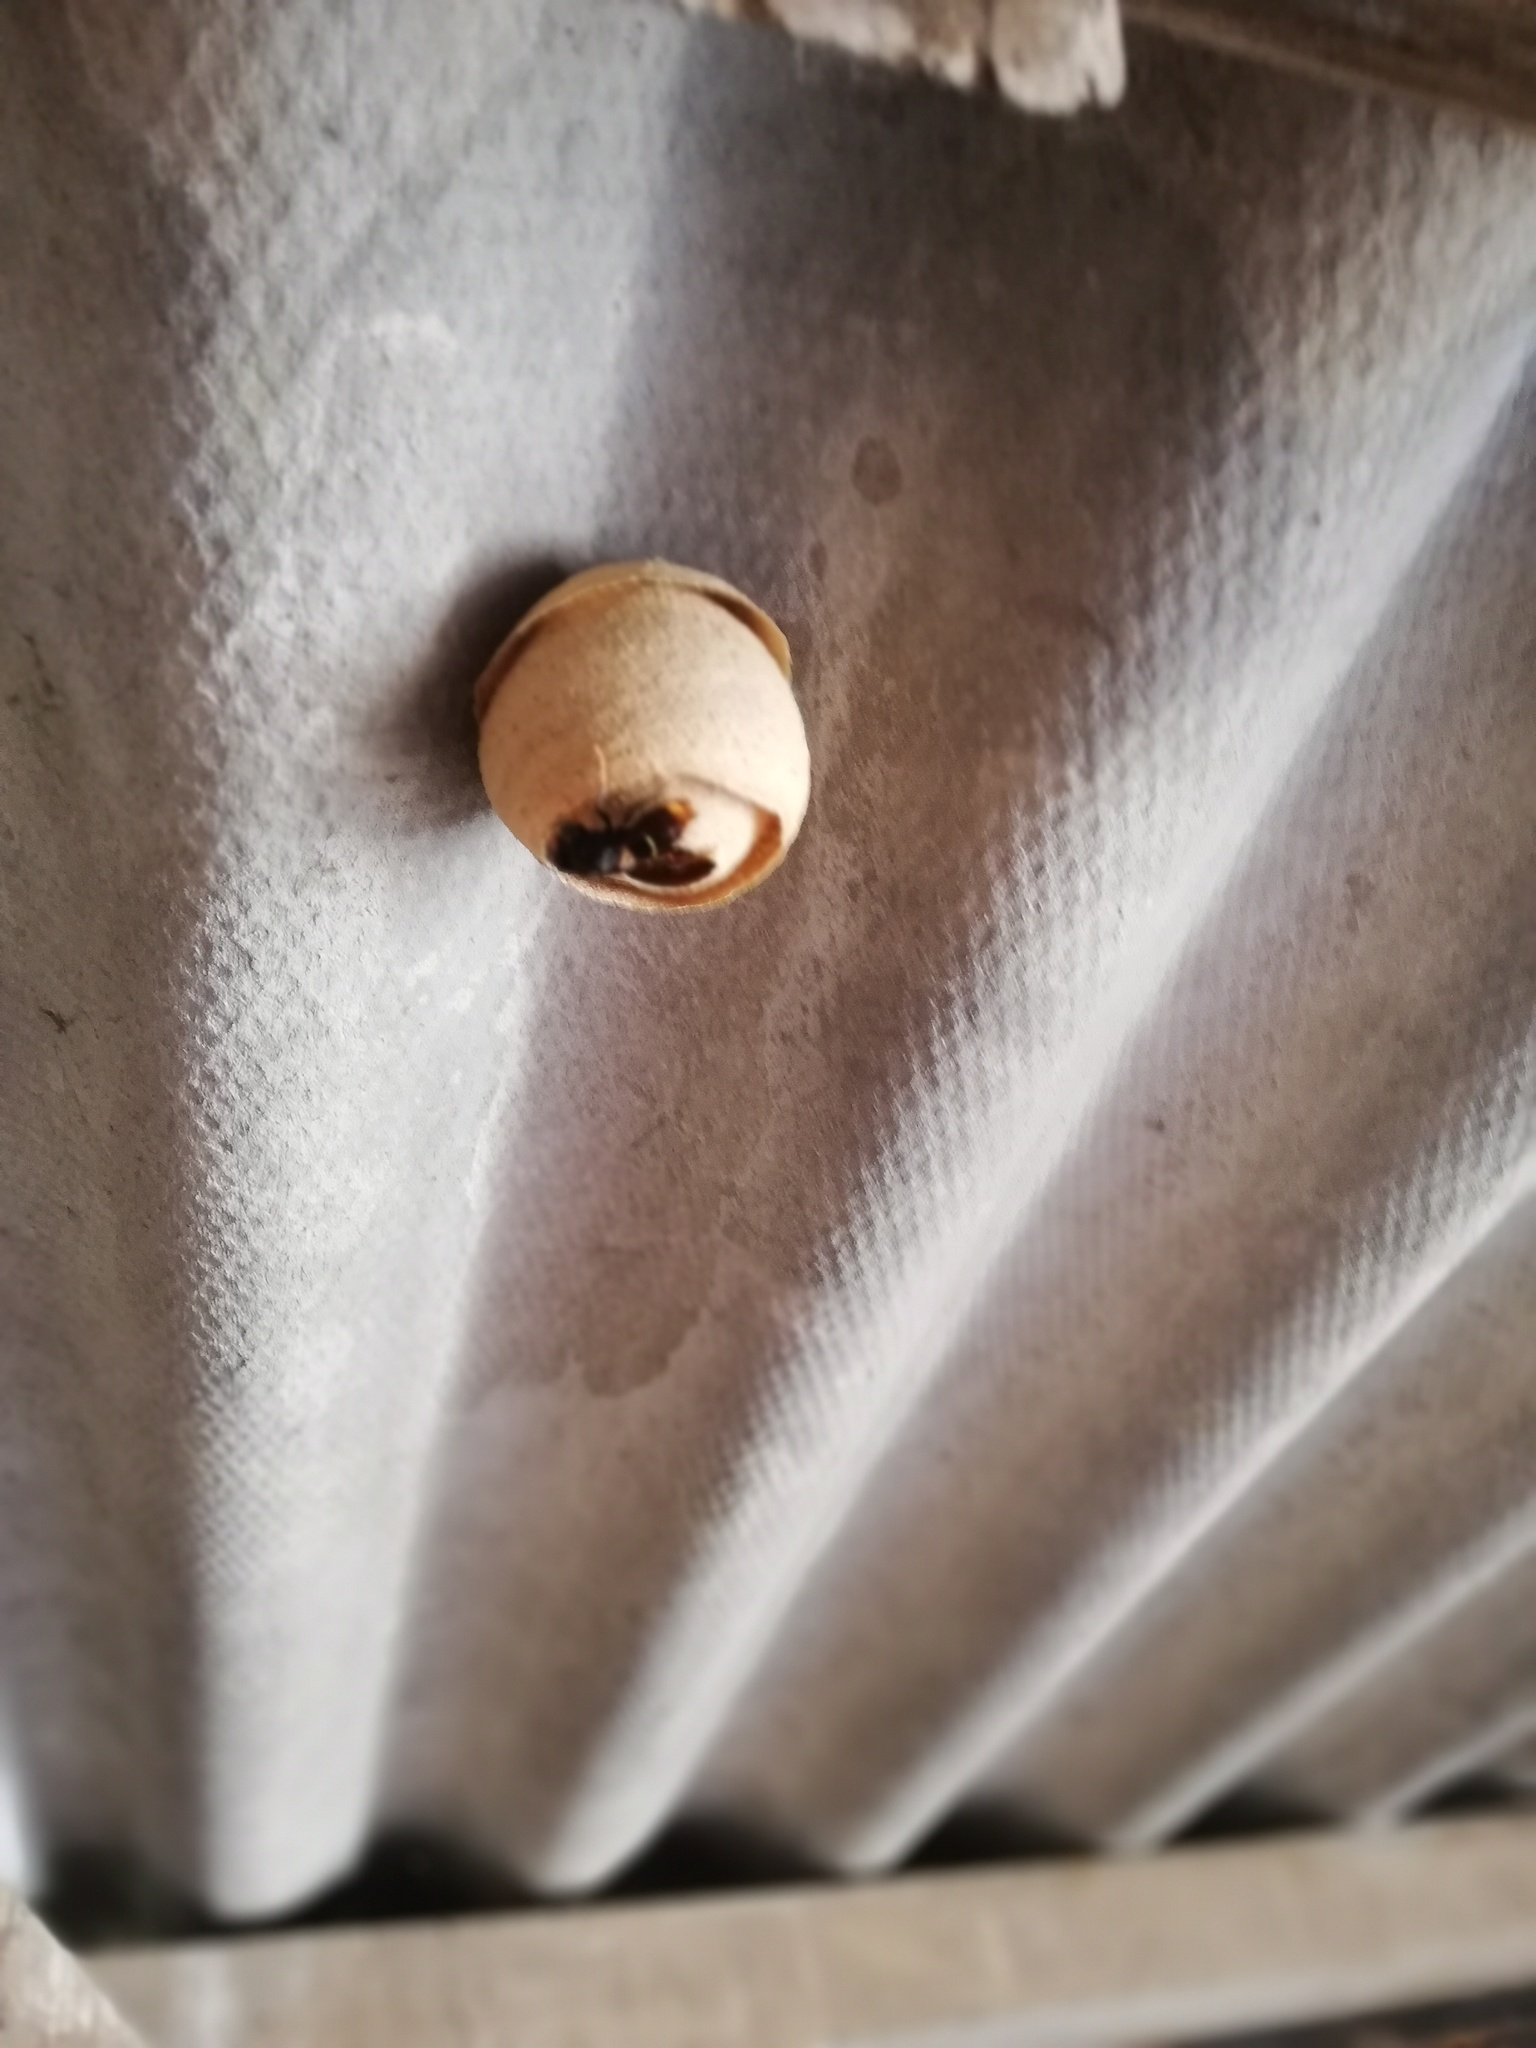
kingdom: Animalia
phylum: Arthropoda
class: Insecta
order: Hymenoptera
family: Vespidae
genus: Vespa
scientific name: Vespa velutina
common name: Asian hornet
